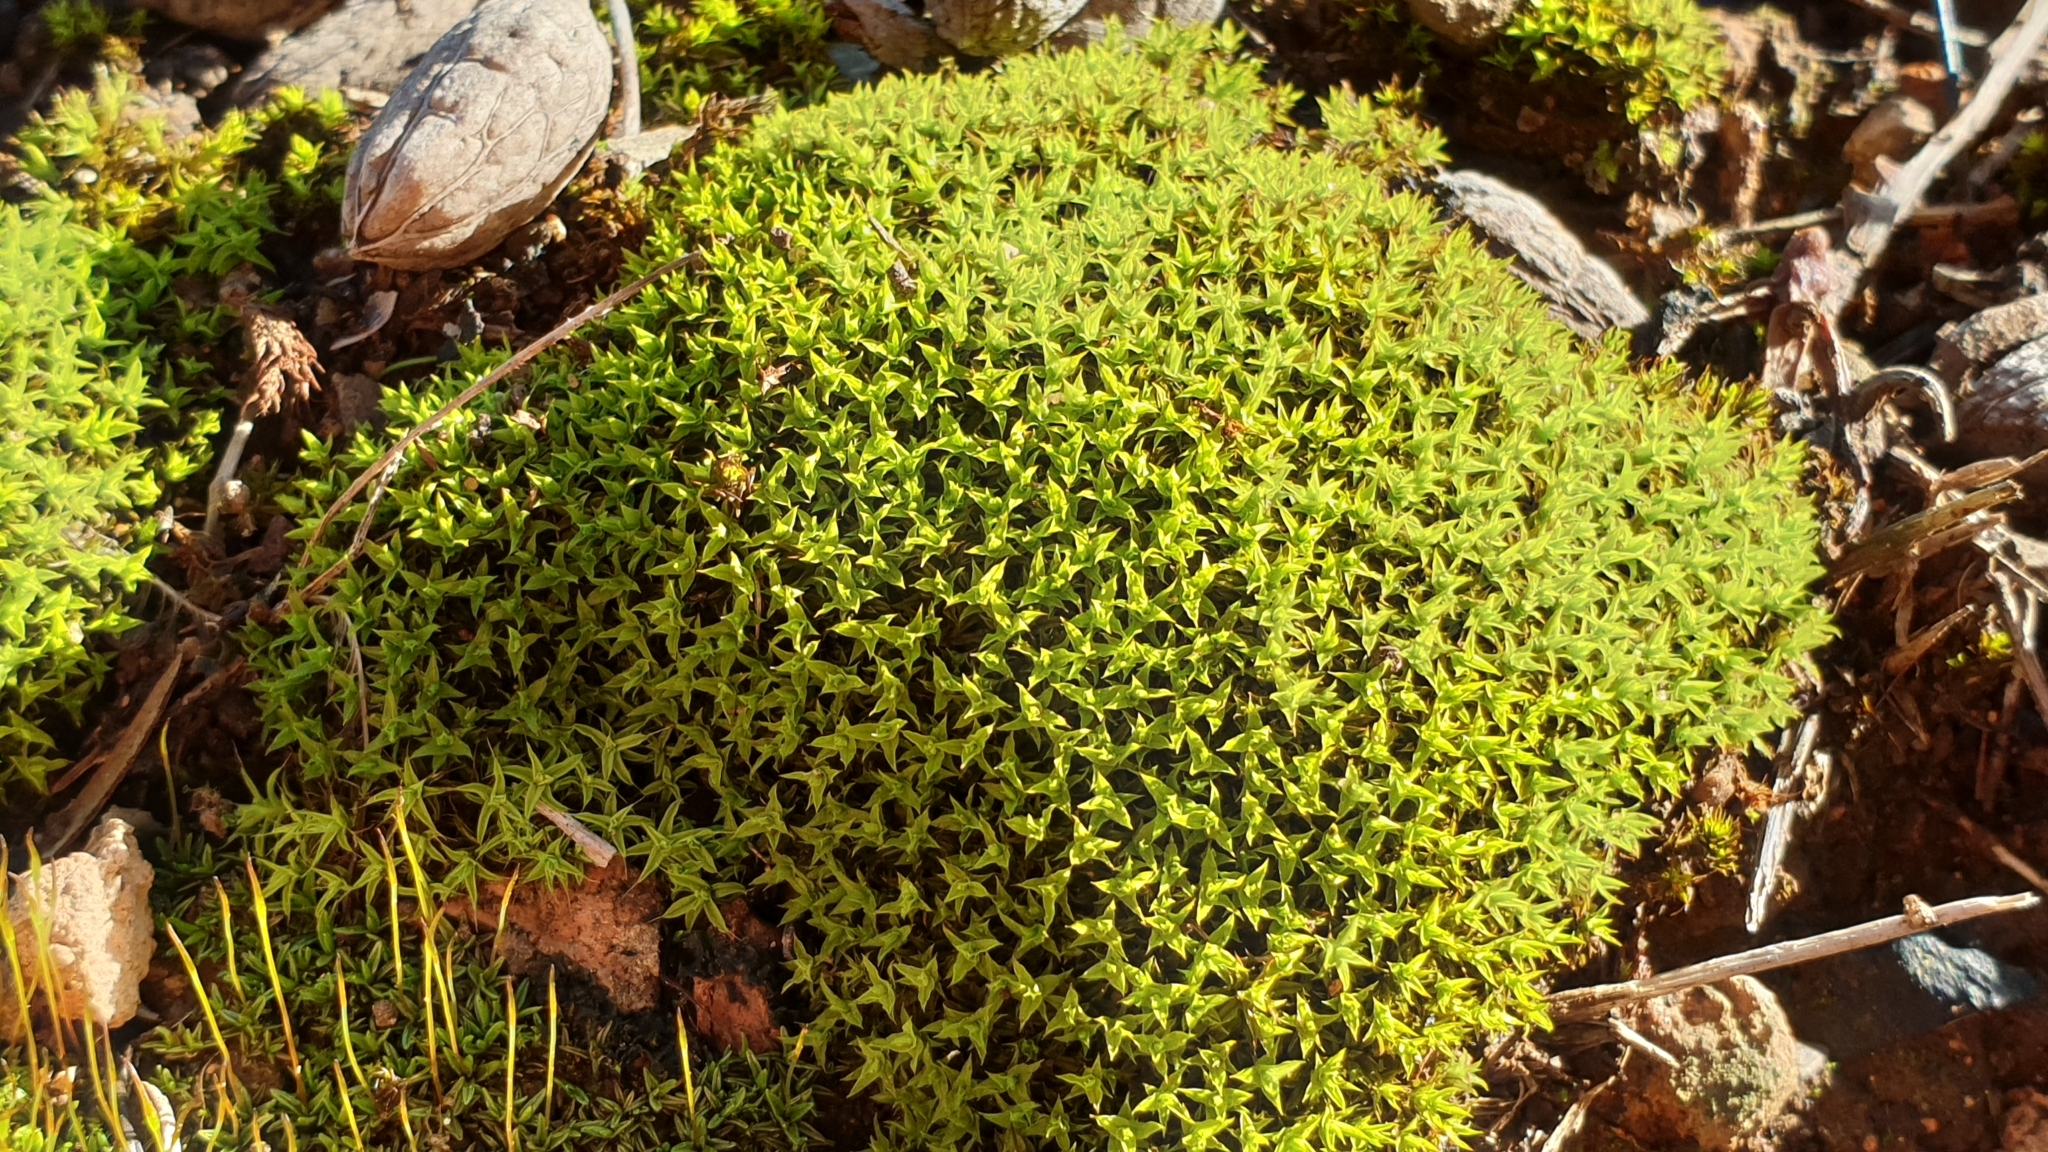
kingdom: Plantae
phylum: Bryophyta
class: Bryopsida
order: Pottiales
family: Pottiaceae
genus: Barbula
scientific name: Barbula calycina
